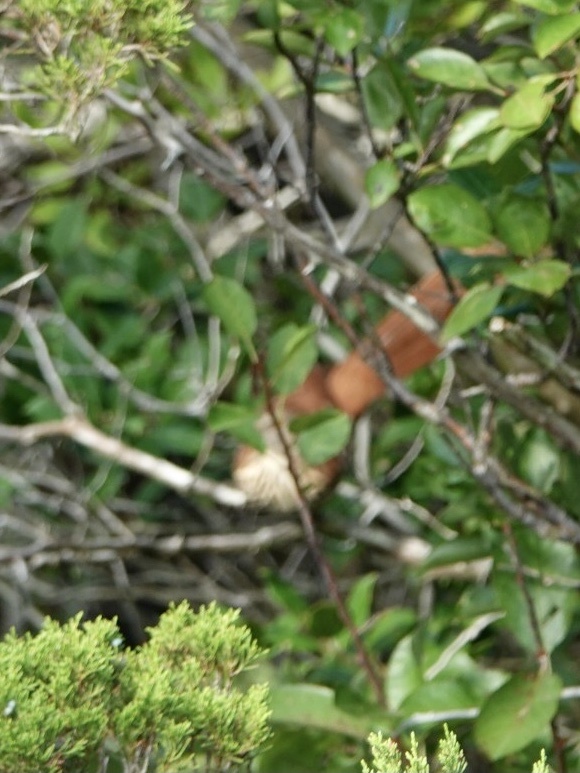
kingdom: Animalia
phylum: Chordata
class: Aves
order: Passeriformes
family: Mimidae
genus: Toxostoma
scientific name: Toxostoma rufum
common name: Brown thrasher
